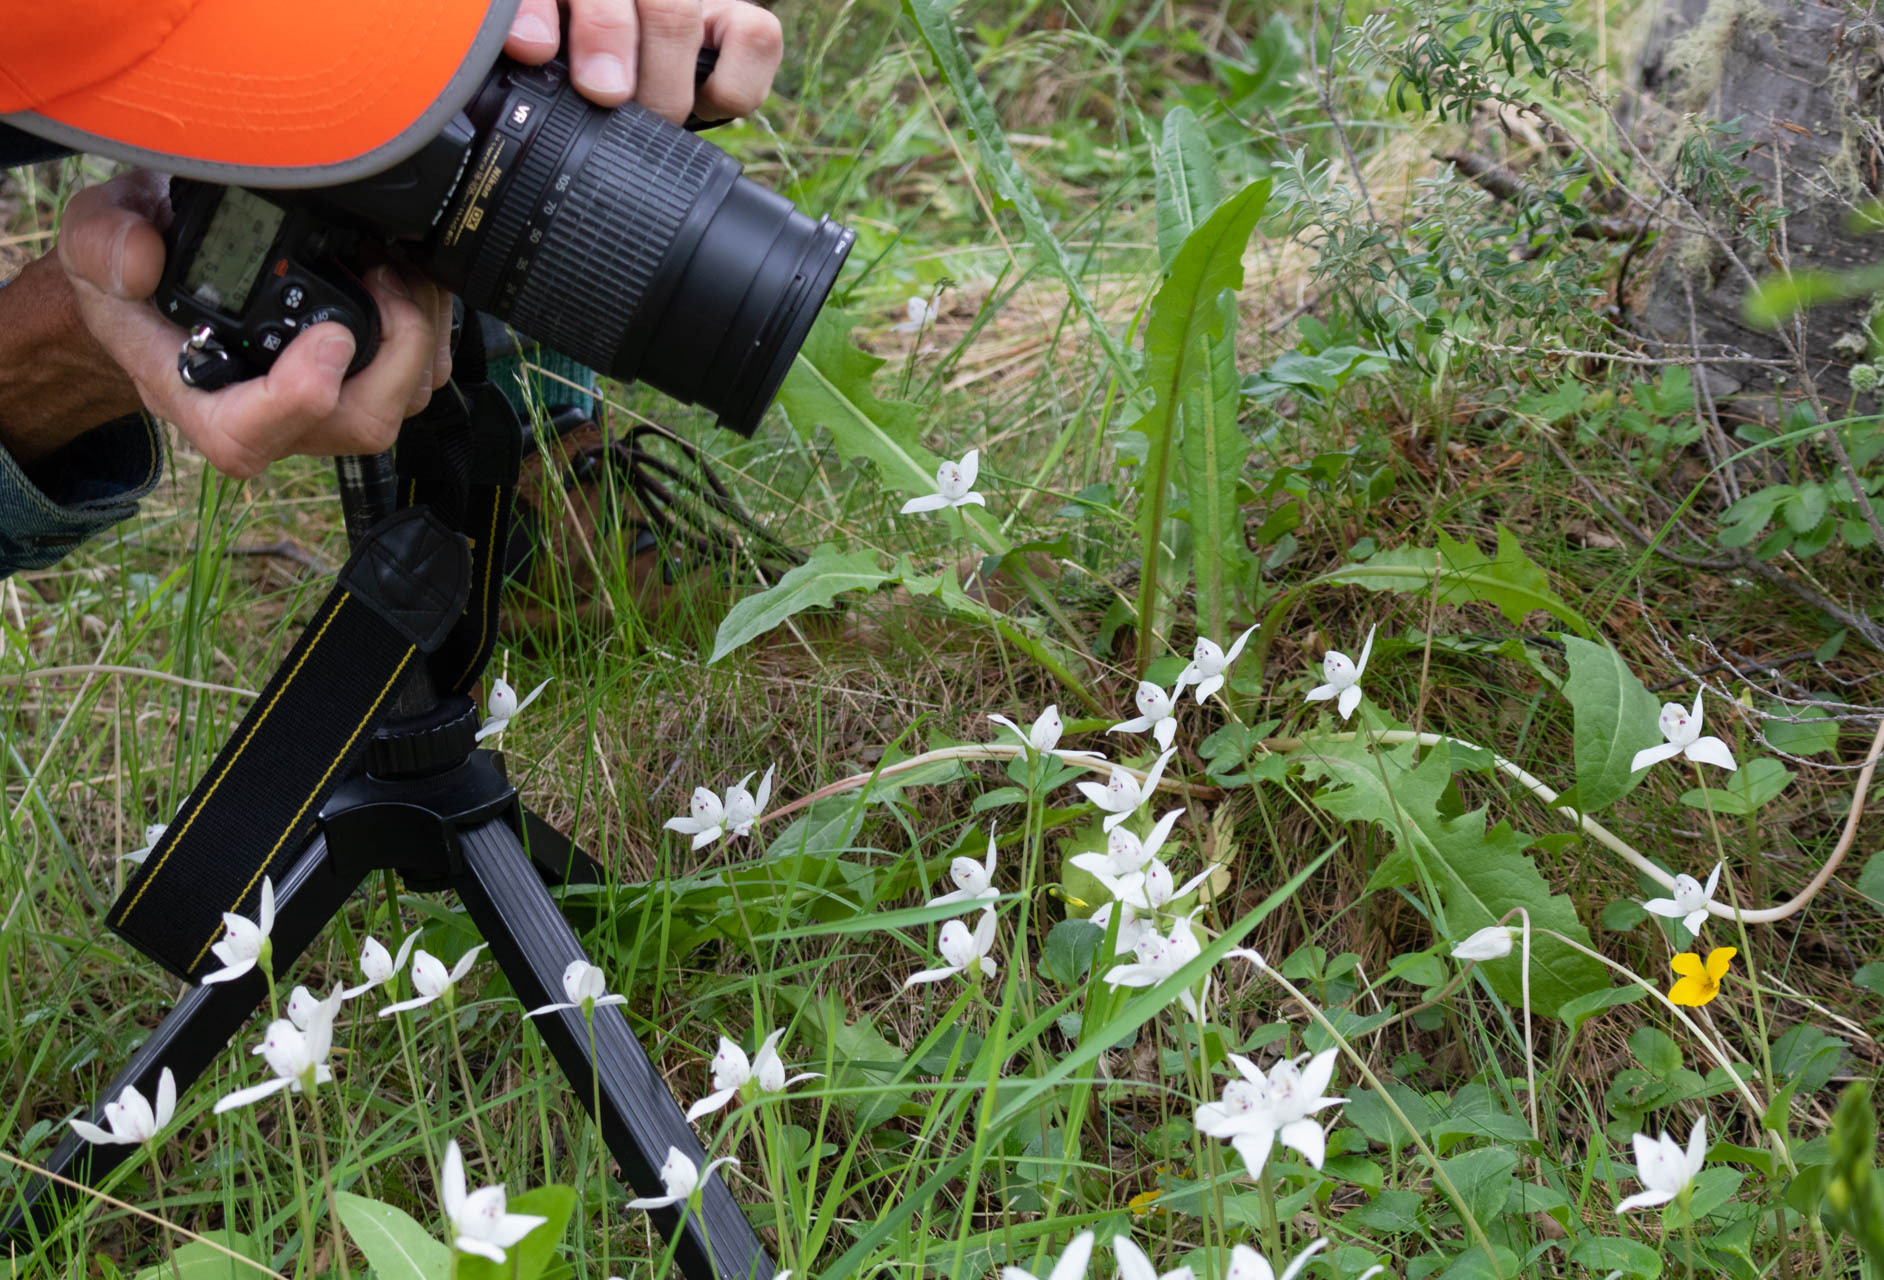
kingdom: Plantae
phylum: Tracheophyta
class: Liliopsida
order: Asparagales
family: Orchidaceae
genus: Codonorchis
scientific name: Codonorchis lessonii
